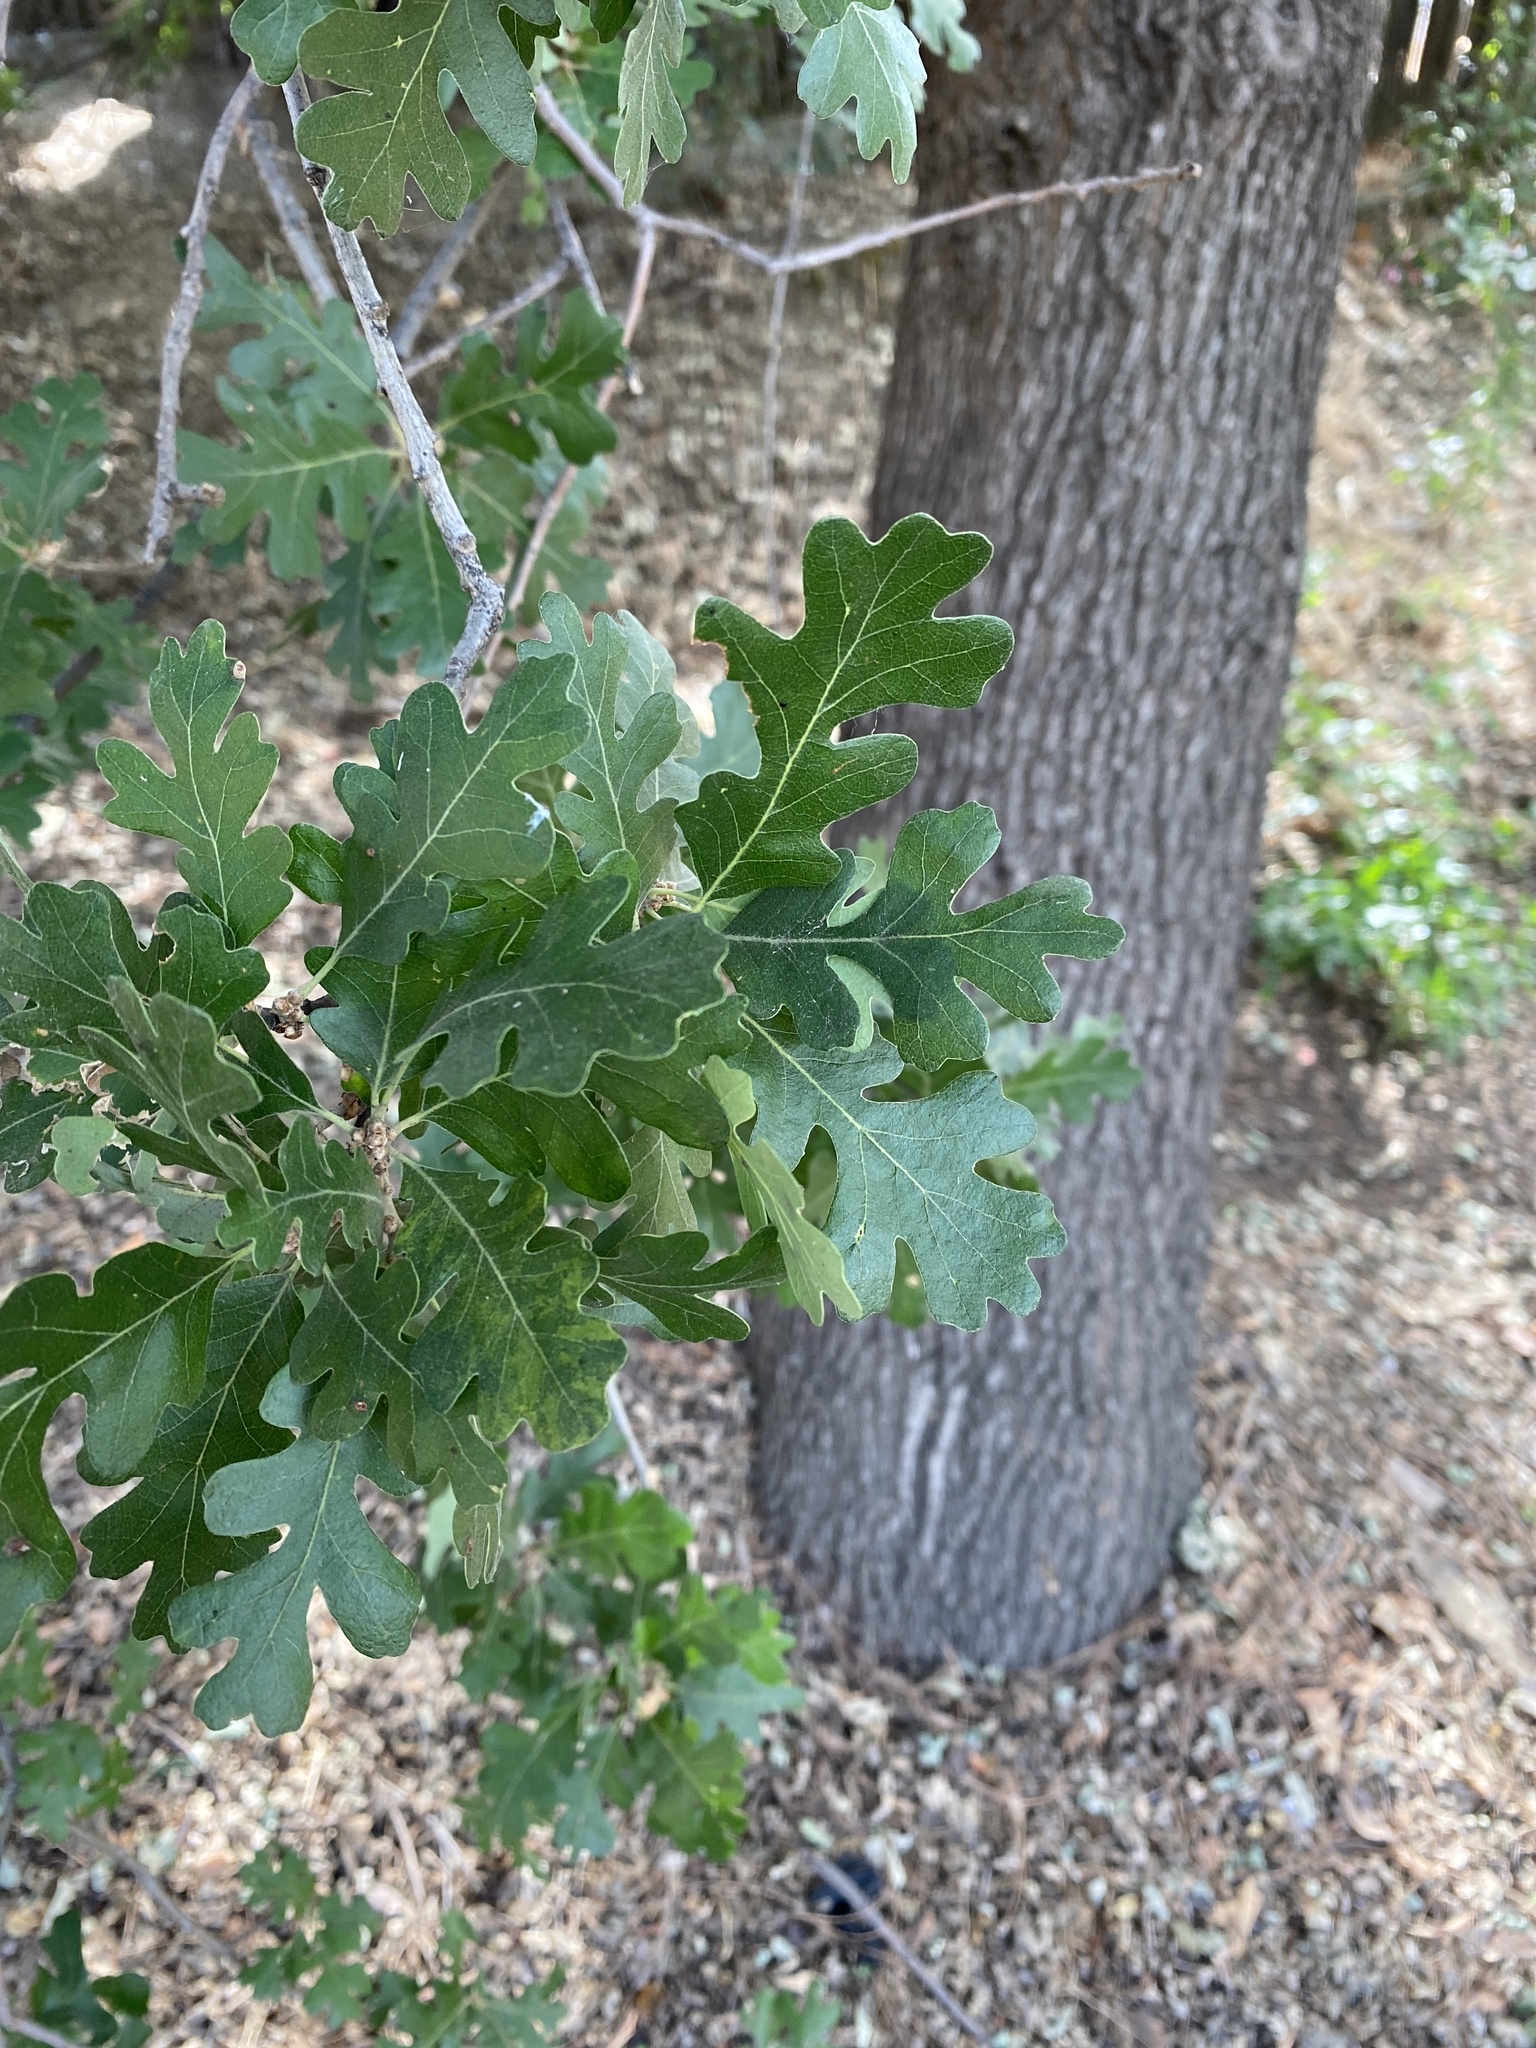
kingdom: Plantae
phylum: Tracheophyta
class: Magnoliopsida
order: Fagales
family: Fagaceae
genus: Quercus
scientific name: Quercus lobata
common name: Valley oak
